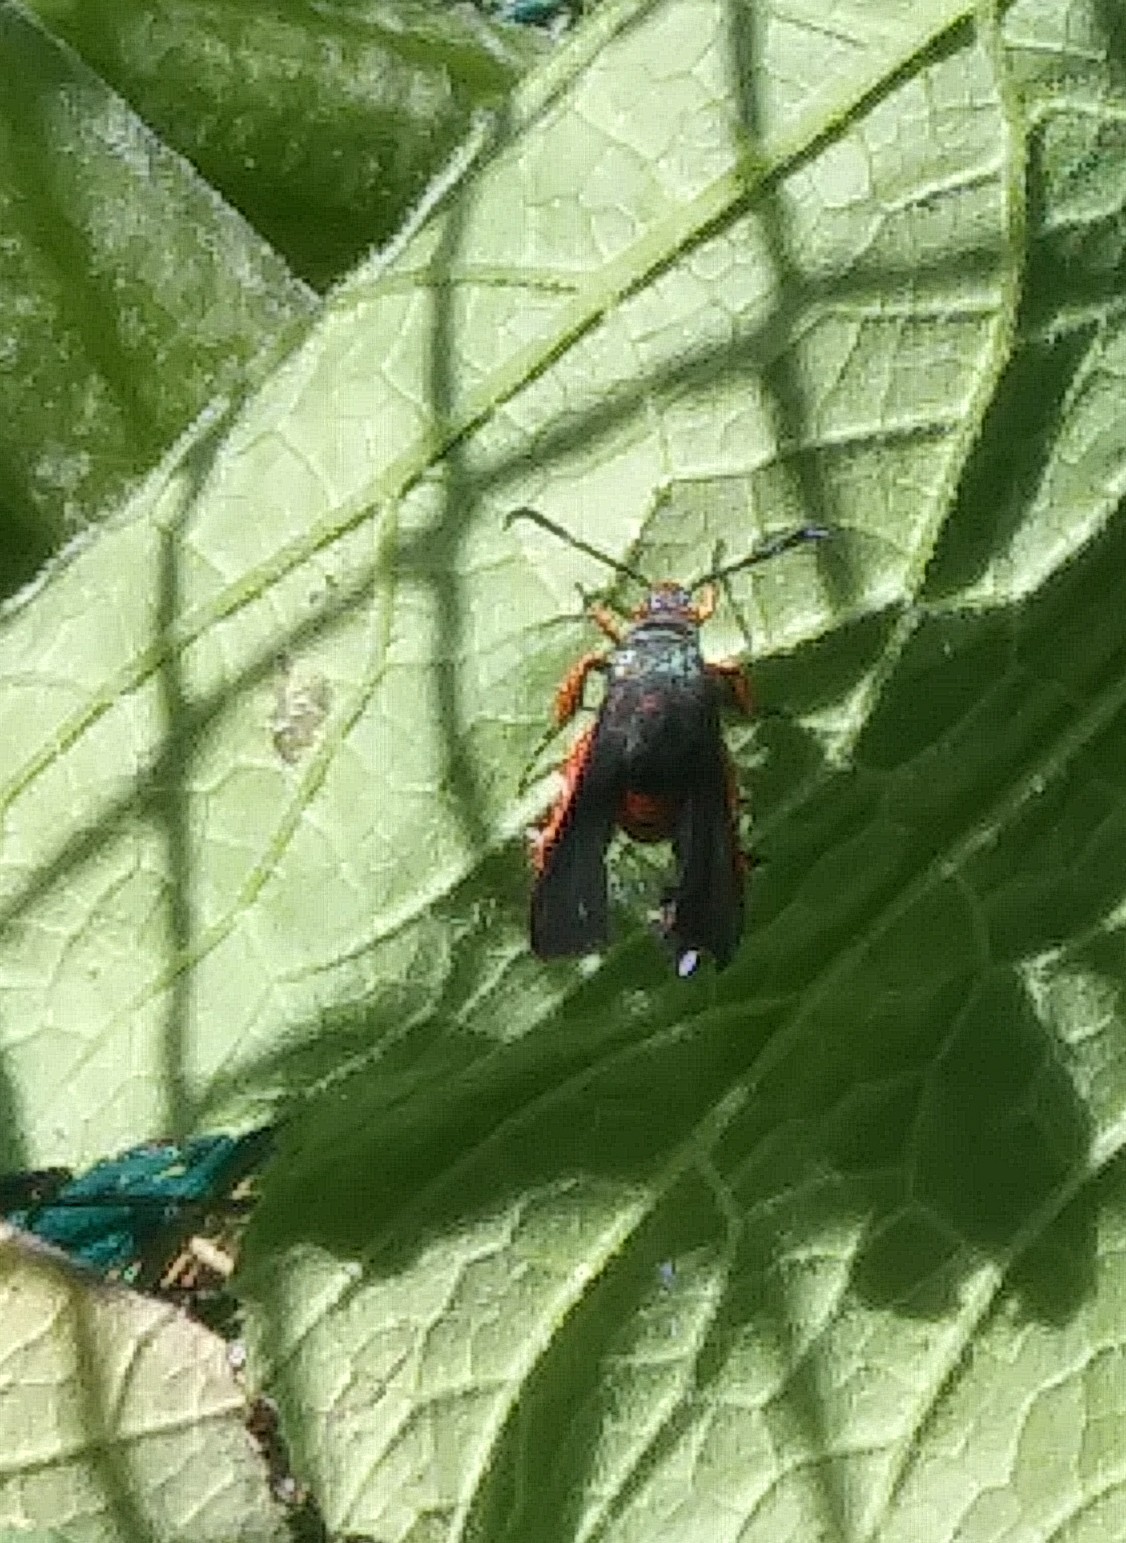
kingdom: Animalia
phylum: Arthropoda
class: Insecta
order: Lepidoptera
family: Sesiidae
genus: Eichlinia
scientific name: Eichlinia cucurbitae
